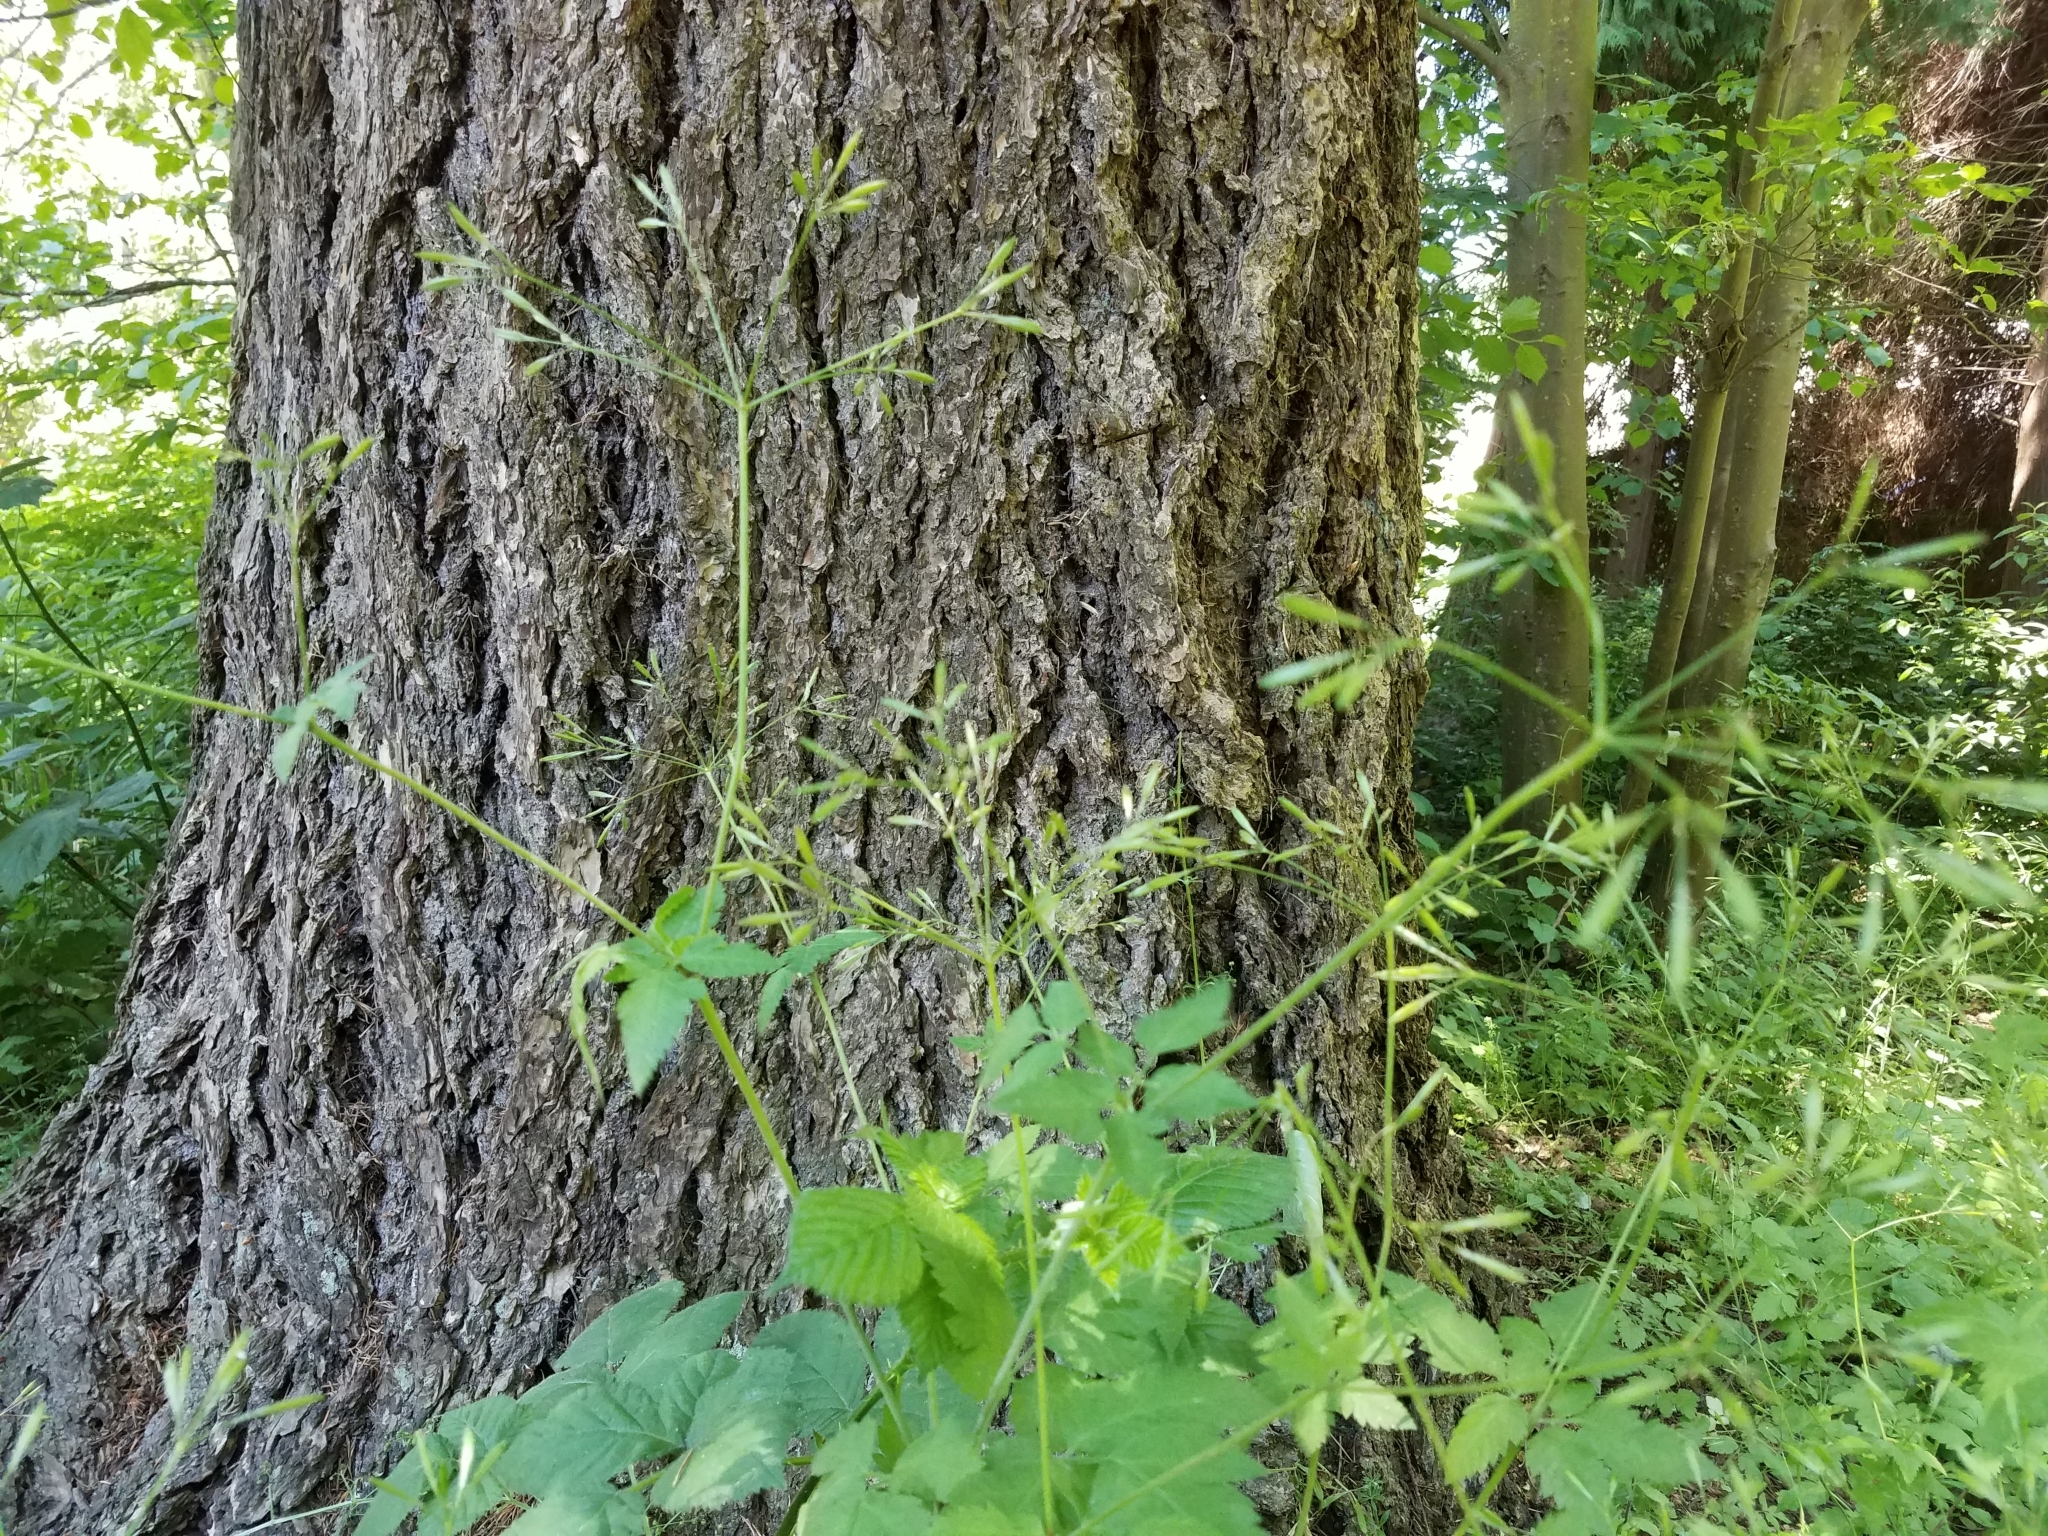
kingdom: Plantae
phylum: Tracheophyta
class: Magnoliopsida
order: Apiales
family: Apiaceae
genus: Osmorhiza
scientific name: Osmorhiza berteroi
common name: Mountain sweet cicely
